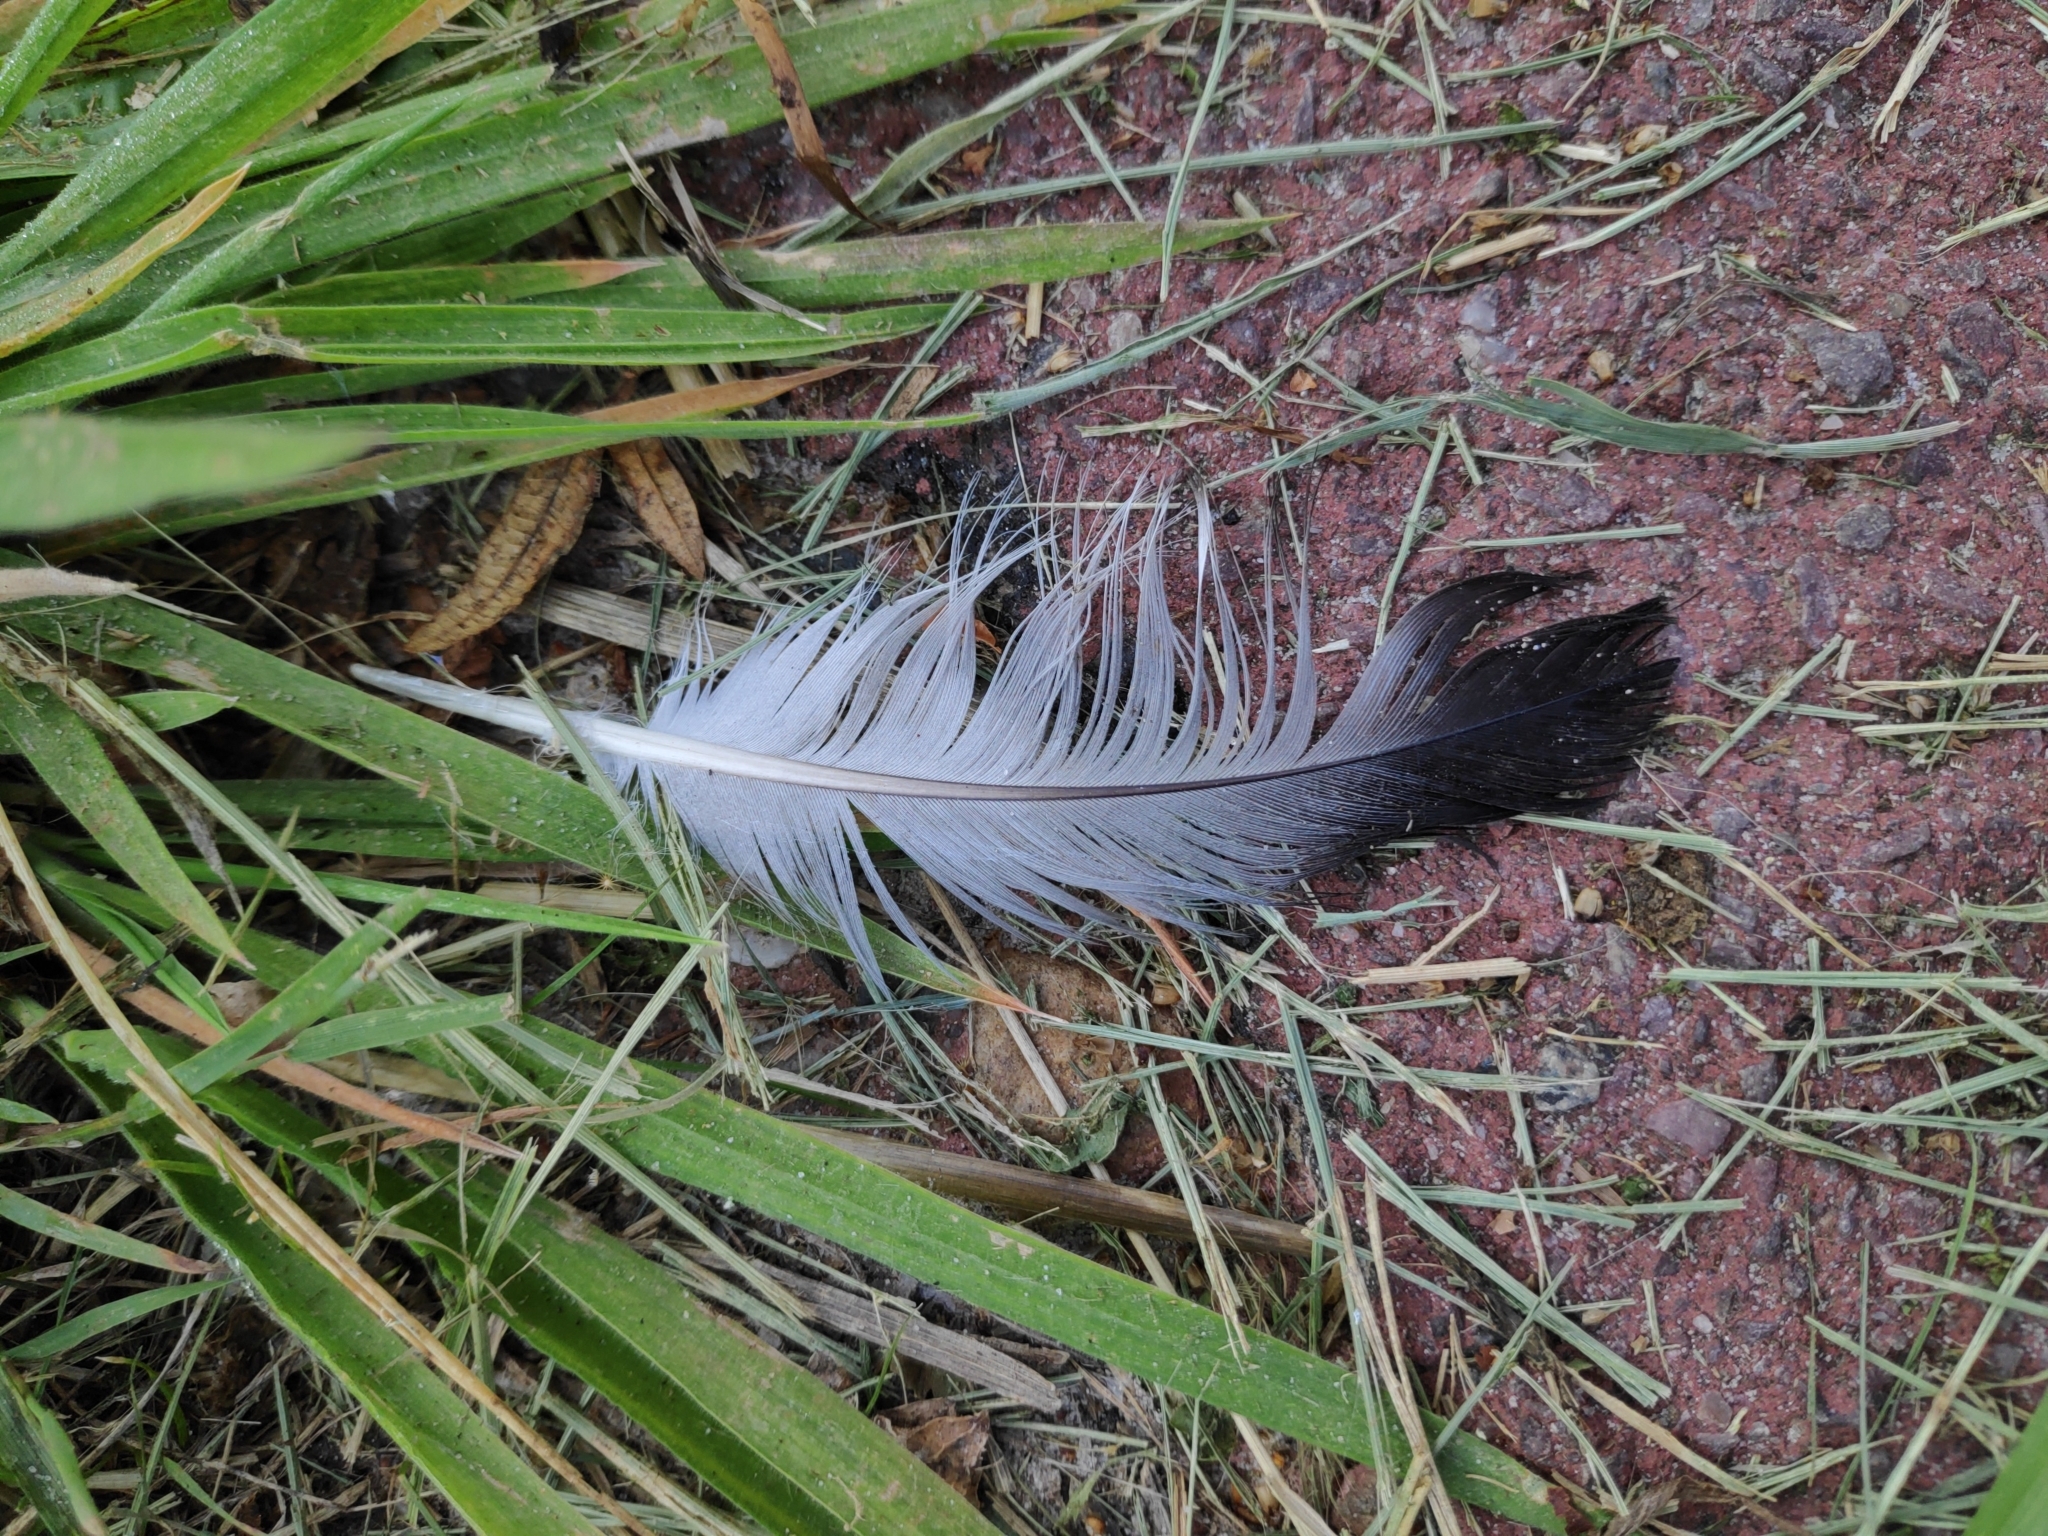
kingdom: Animalia
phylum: Chordata
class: Aves
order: Columbiformes
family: Columbidae
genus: Columba
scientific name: Columba livia
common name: Rock pigeon
